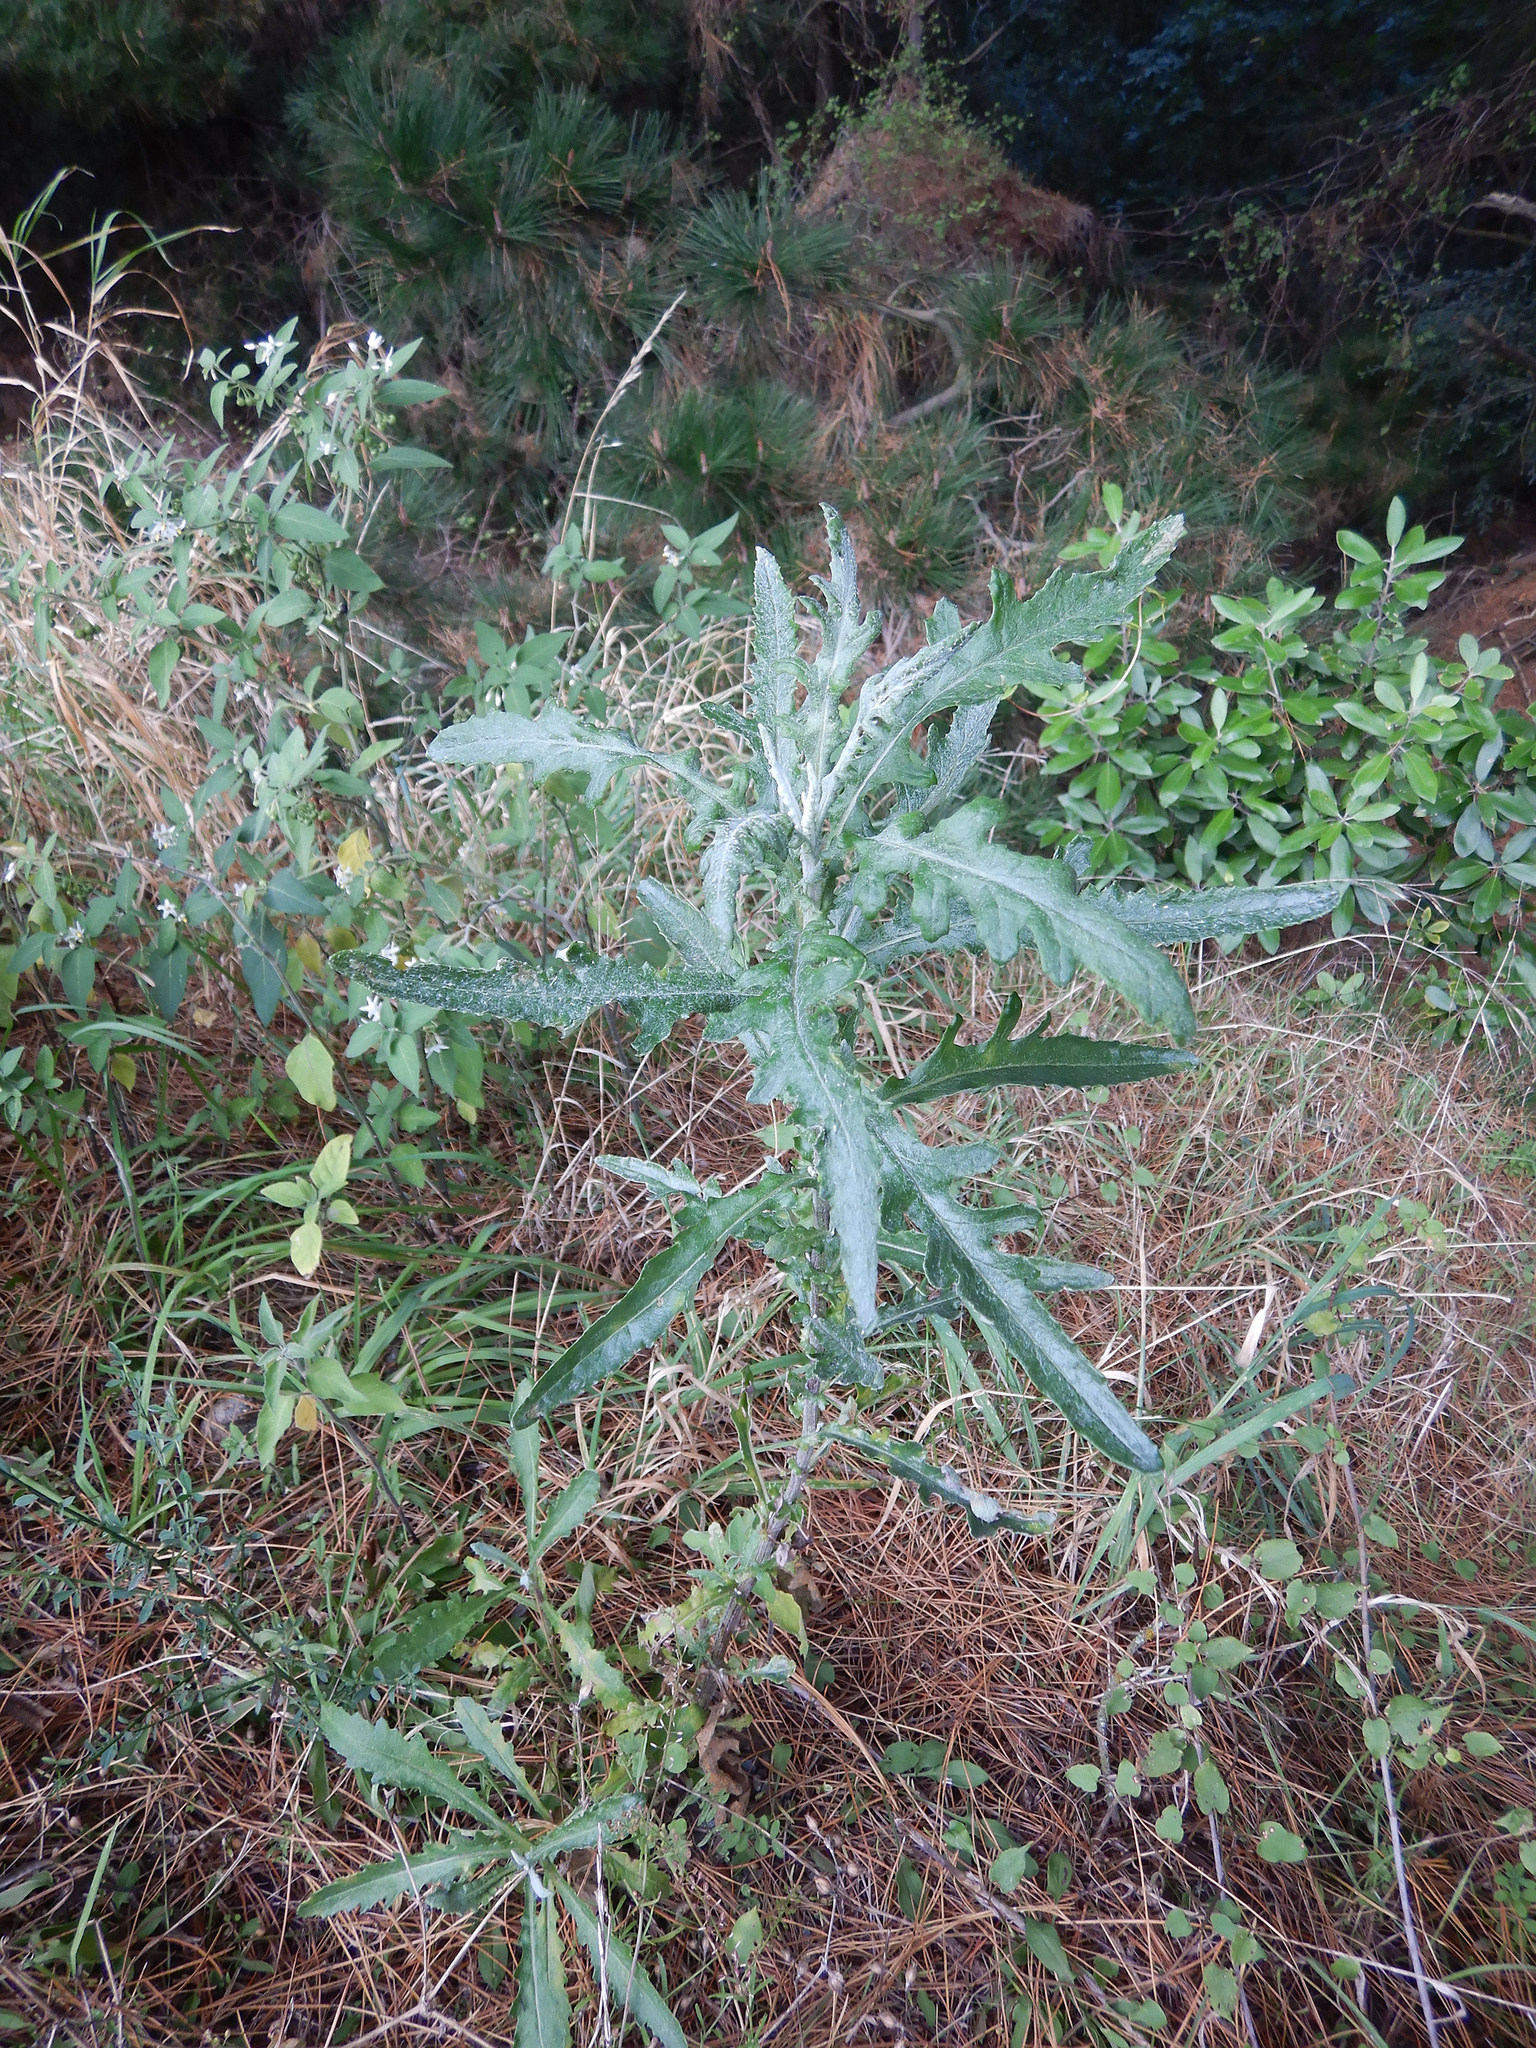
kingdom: Plantae
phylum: Tracheophyta
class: Magnoliopsida
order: Asterales
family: Asteraceae
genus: Senecio
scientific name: Senecio glomeratus
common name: Cutleaf burnweed
